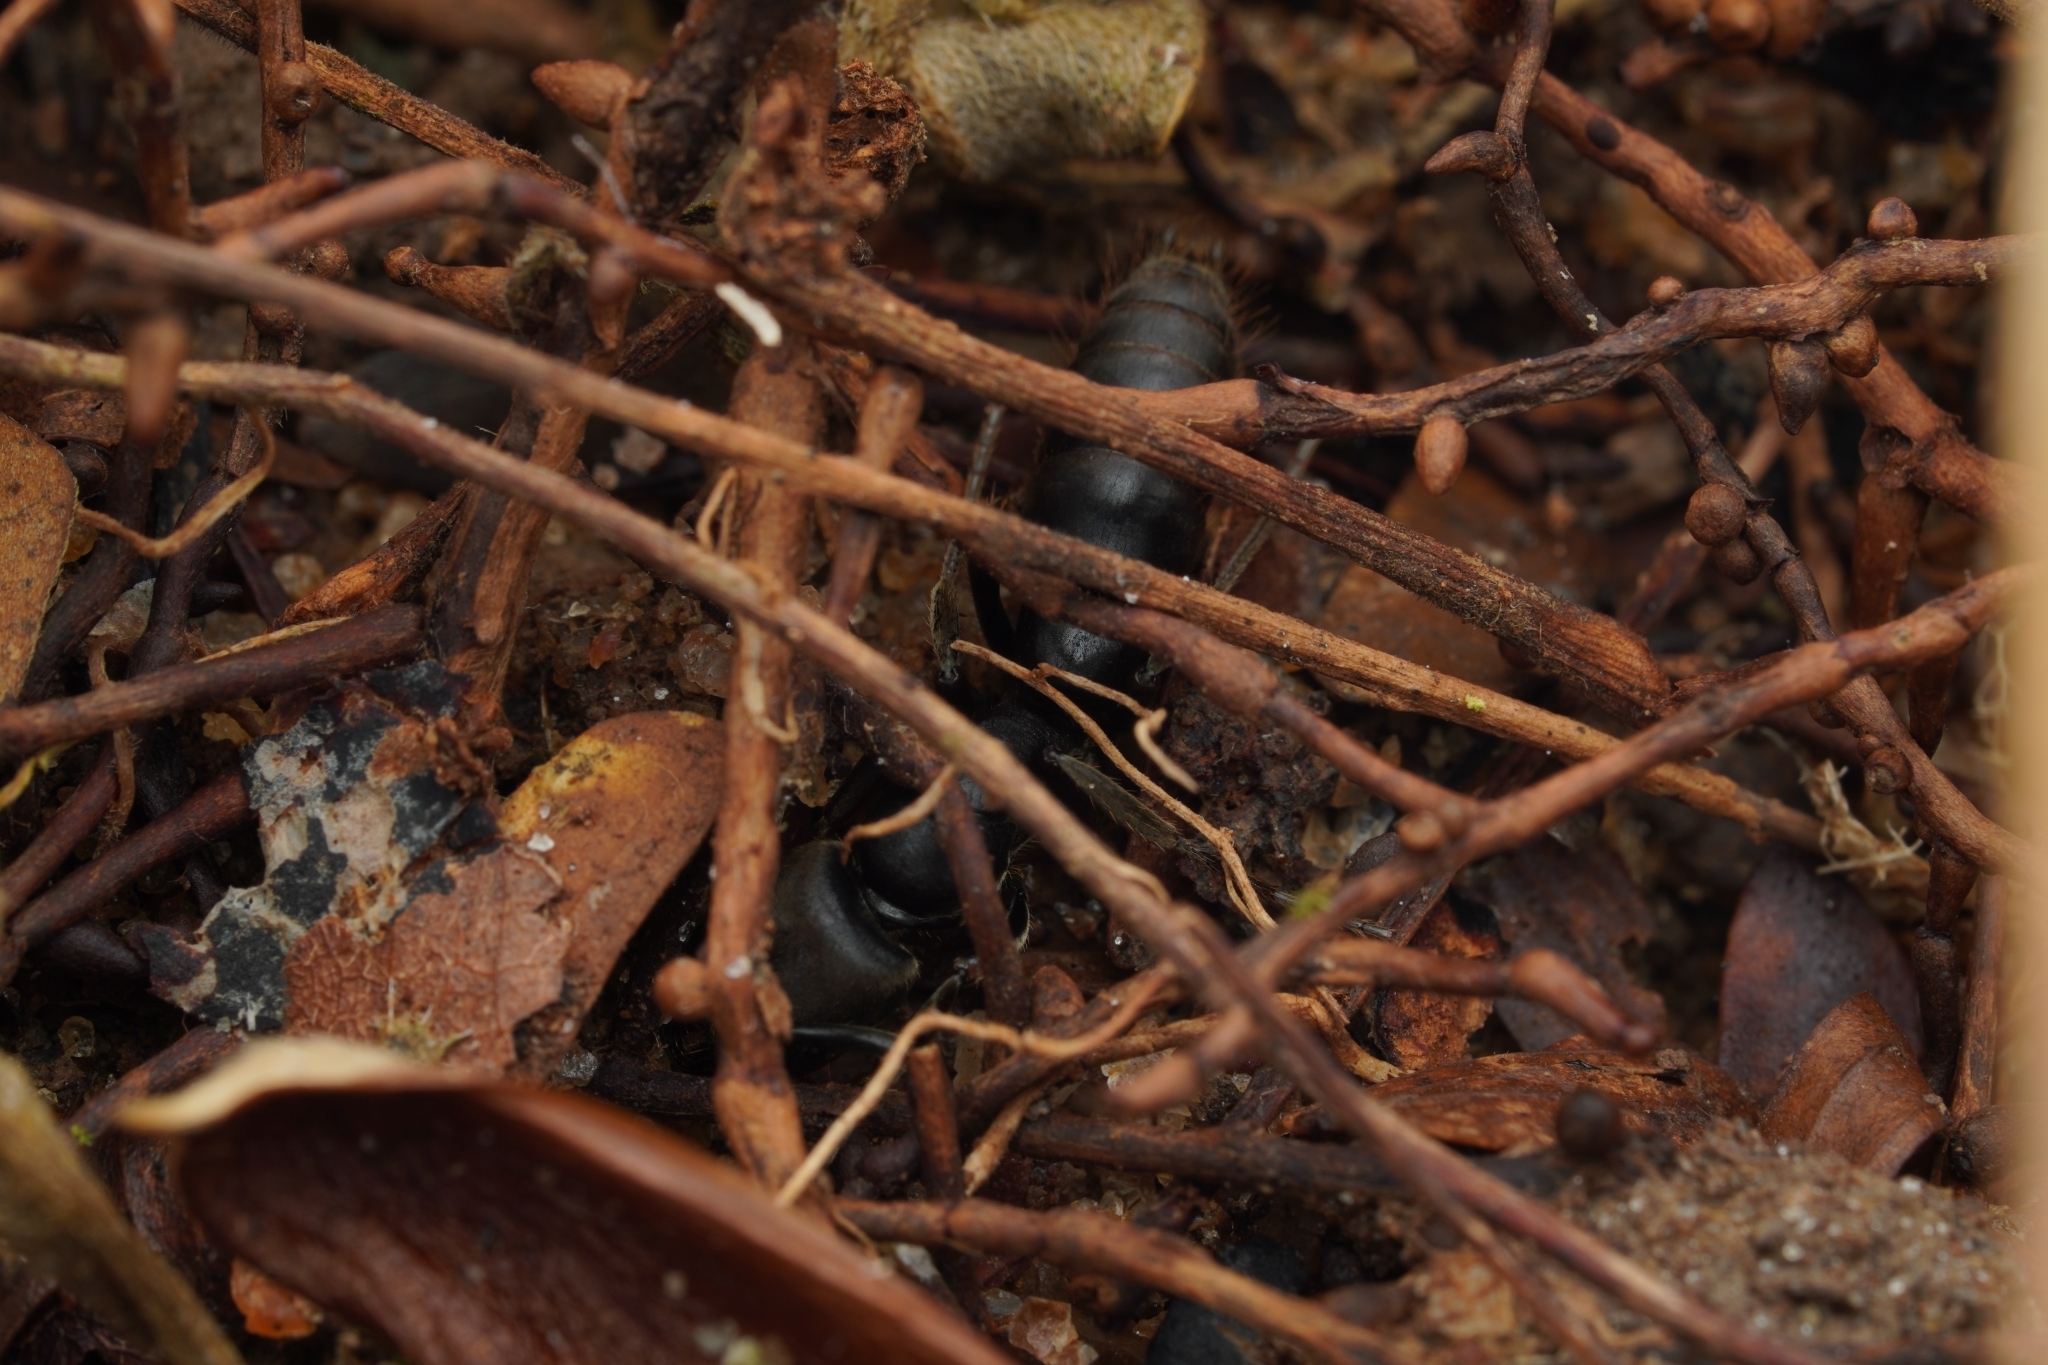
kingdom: Animalia
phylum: Arthropoda
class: Insecta
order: Hymenoptera
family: Formicidae
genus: Pachycondyla
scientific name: Pachycondyla crassinoda
